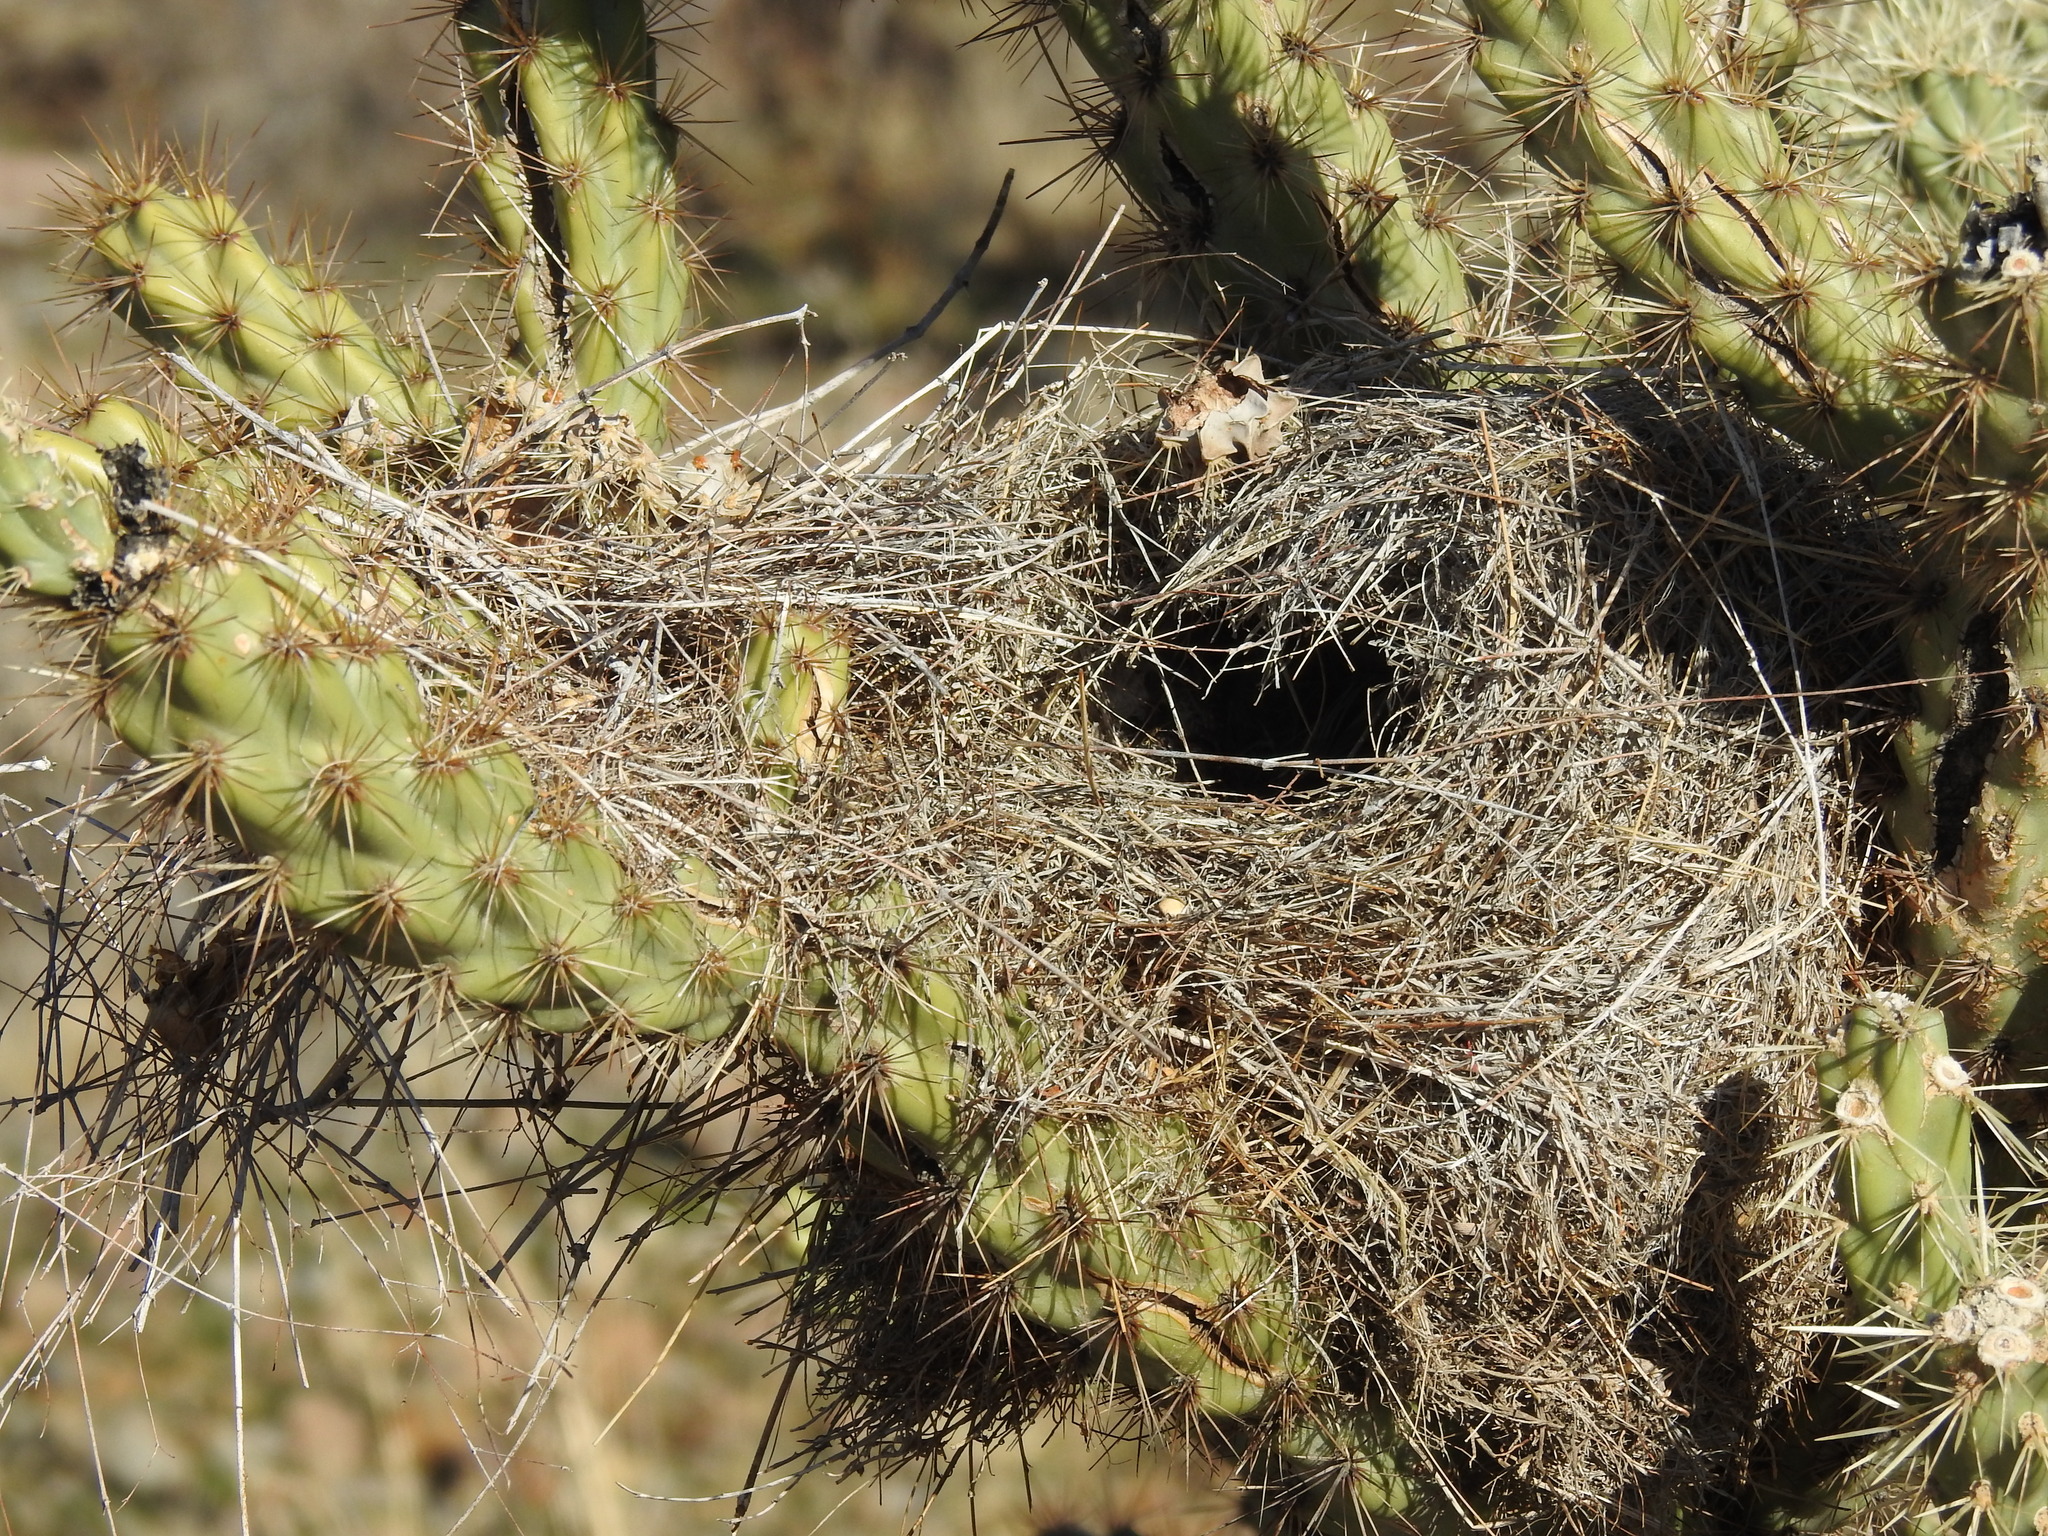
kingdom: Animalia
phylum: Chordata
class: Aves
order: Passeriformes
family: Troglodytidae
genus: Campylorhynchus
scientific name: Campylorhynchus brunneicapillus
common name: Cactus wren
